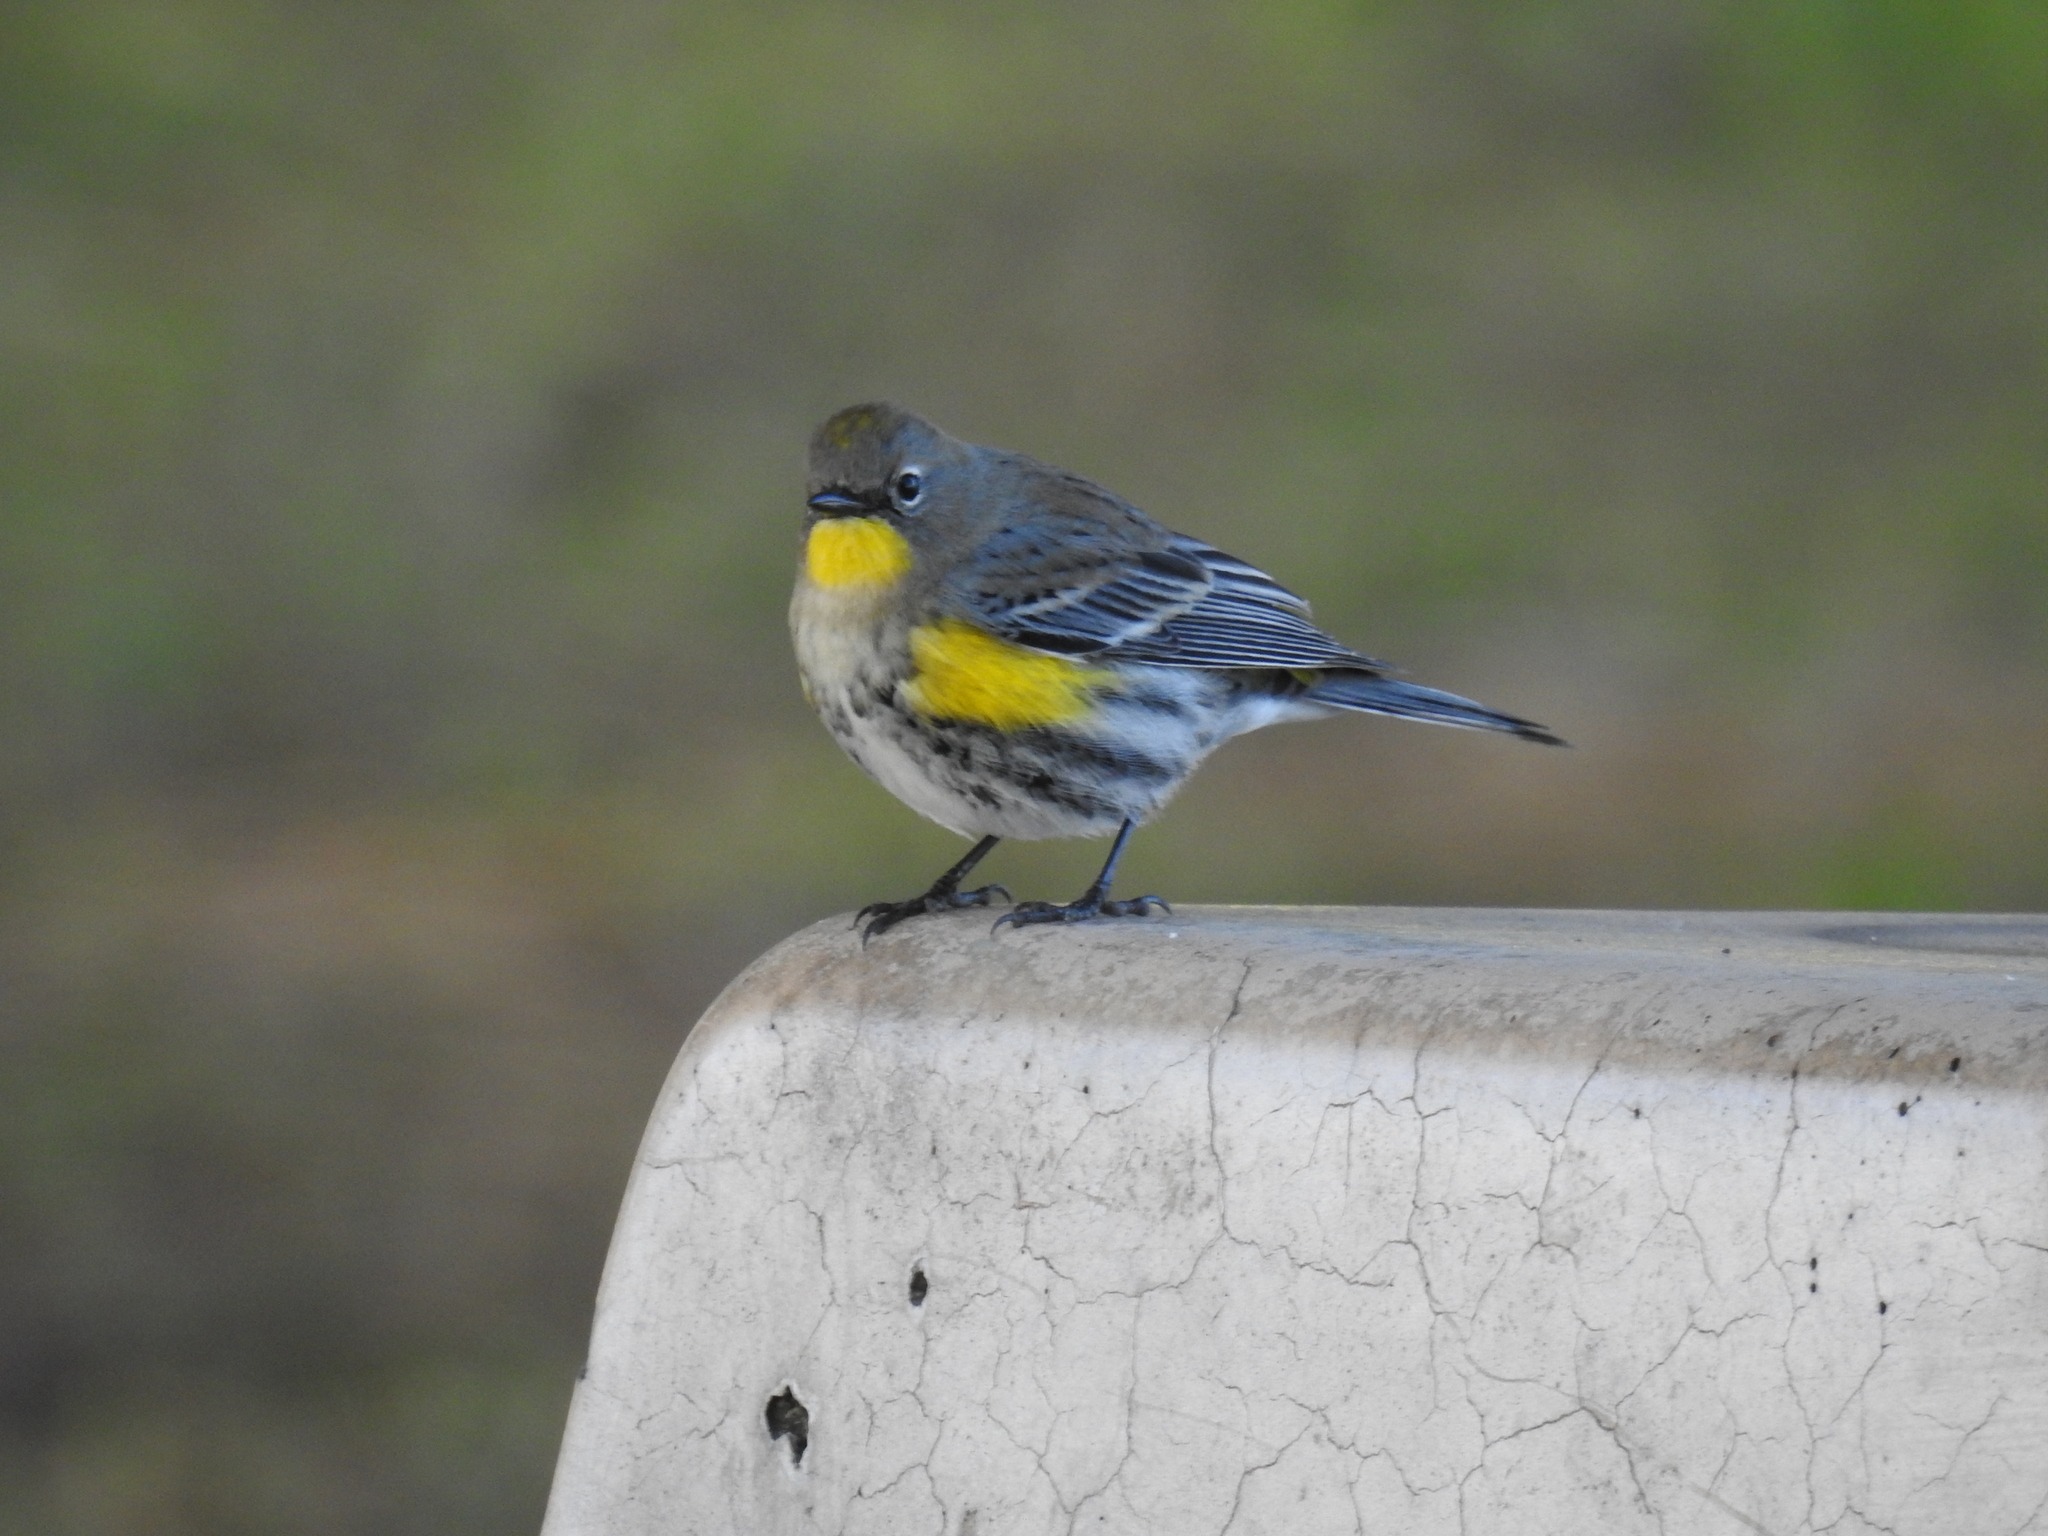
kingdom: Animalia
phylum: Chordata
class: Aves
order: Passeriformes
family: Parulidae
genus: Setophaga
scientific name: Setophaga coronata
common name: Myrtle warbler
